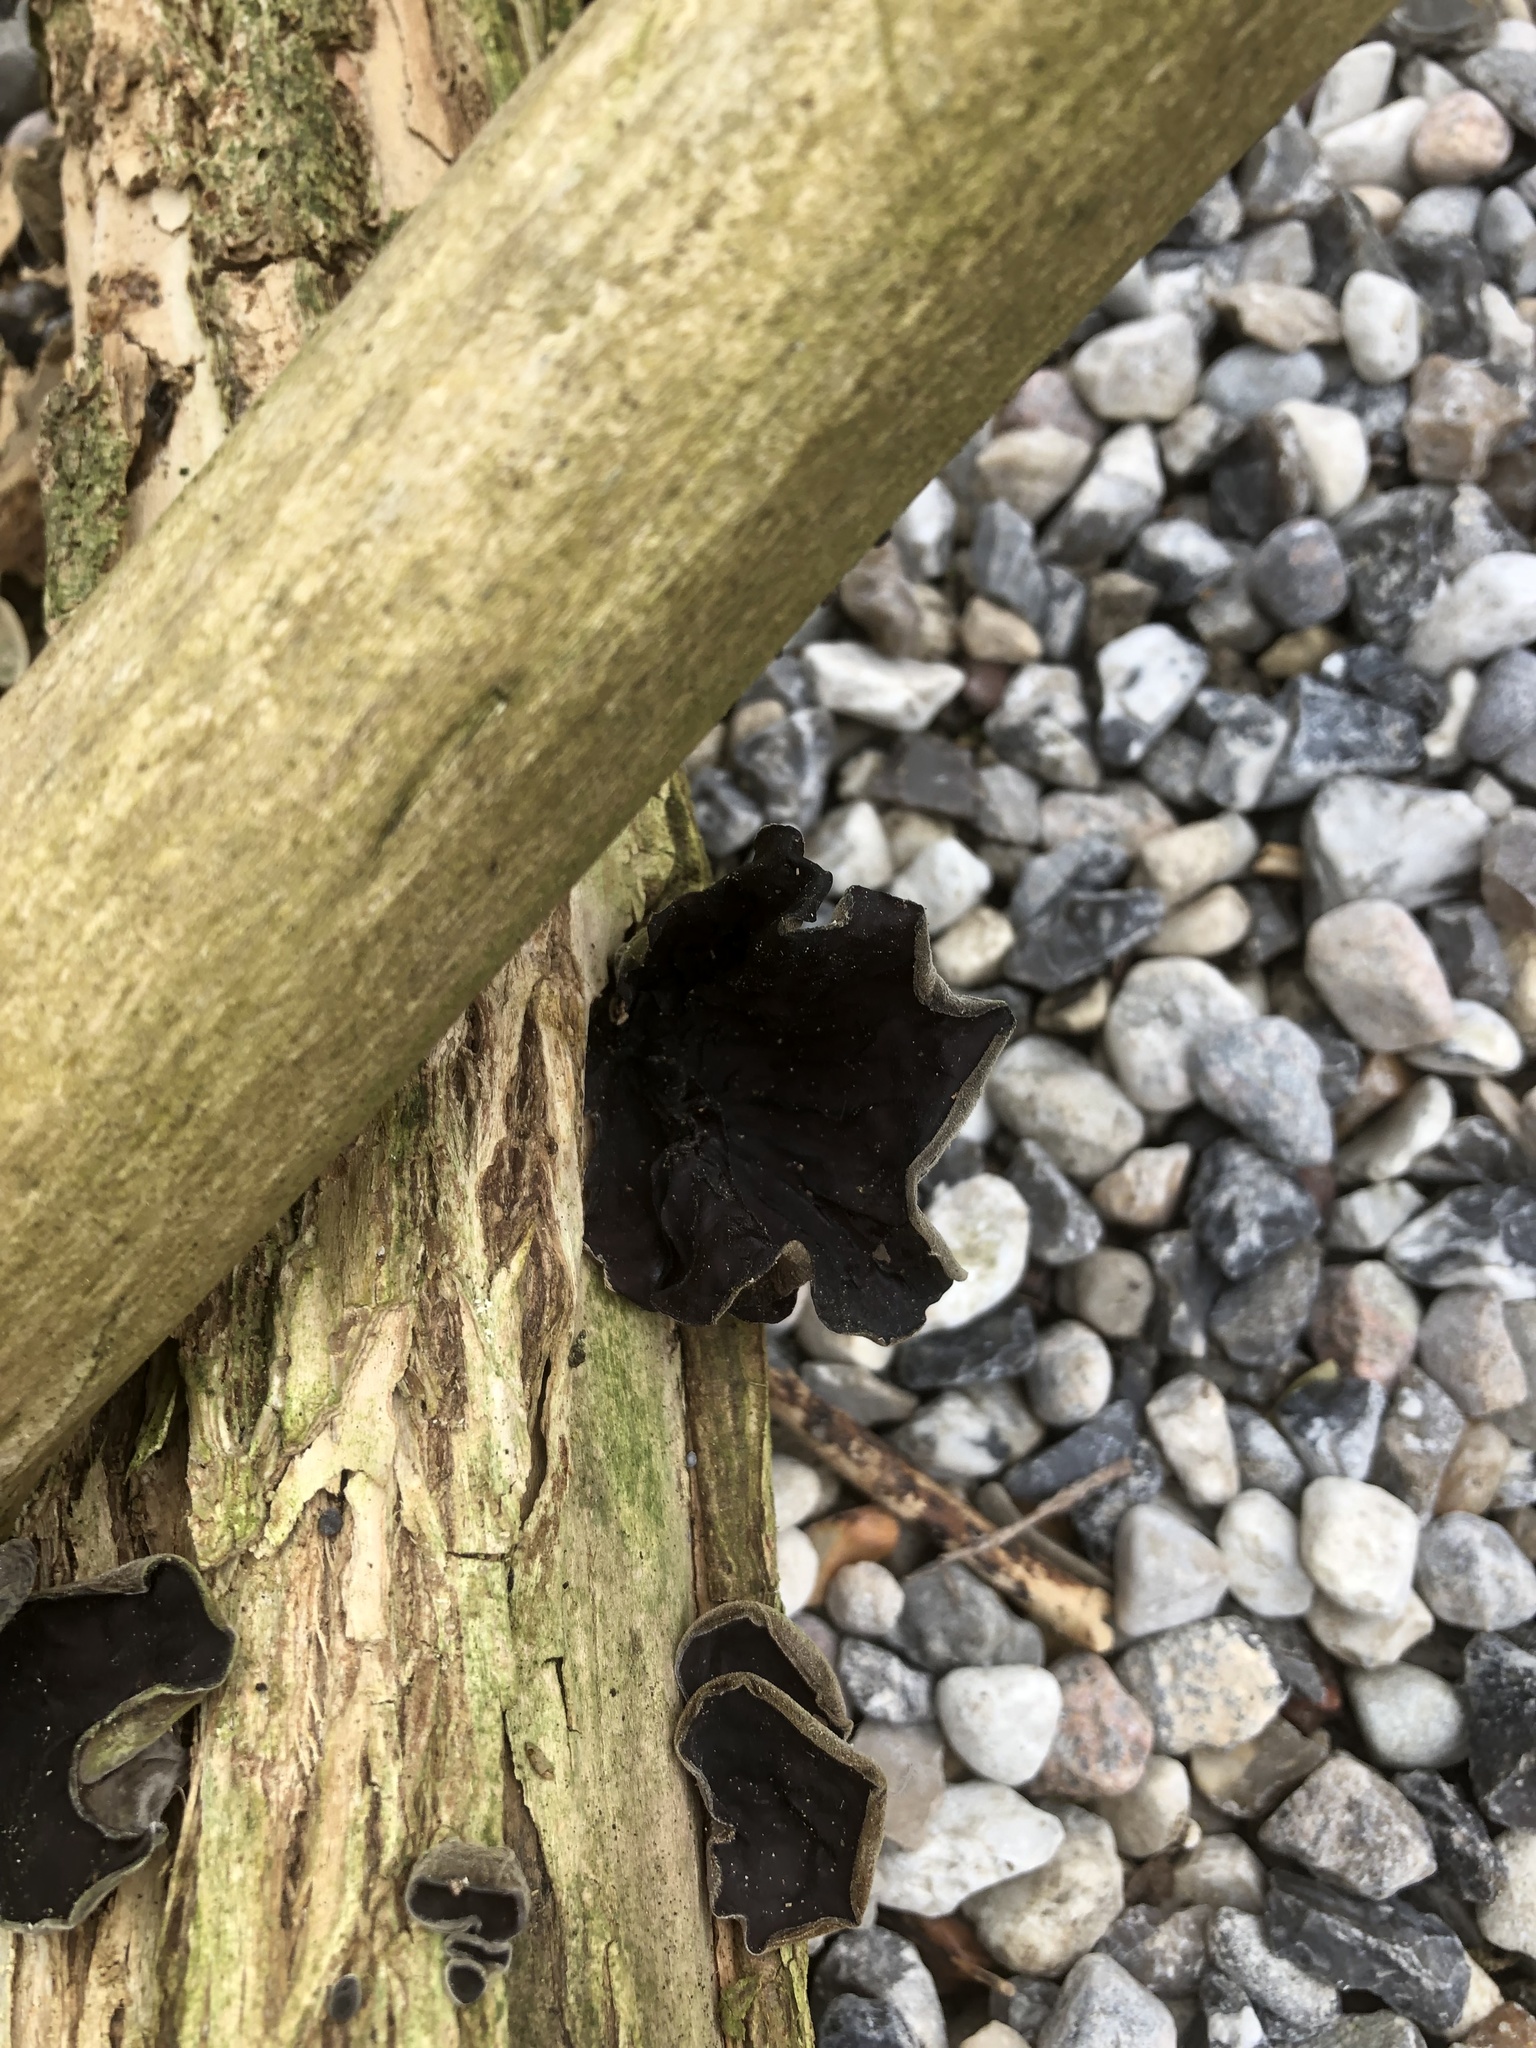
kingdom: Fungi
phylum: Basidiomycota
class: Agaricomycetes
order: Auriculariales
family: Auriculariaceae
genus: Auricularia
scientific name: Auricularia auricula-judae
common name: Jelly ear
